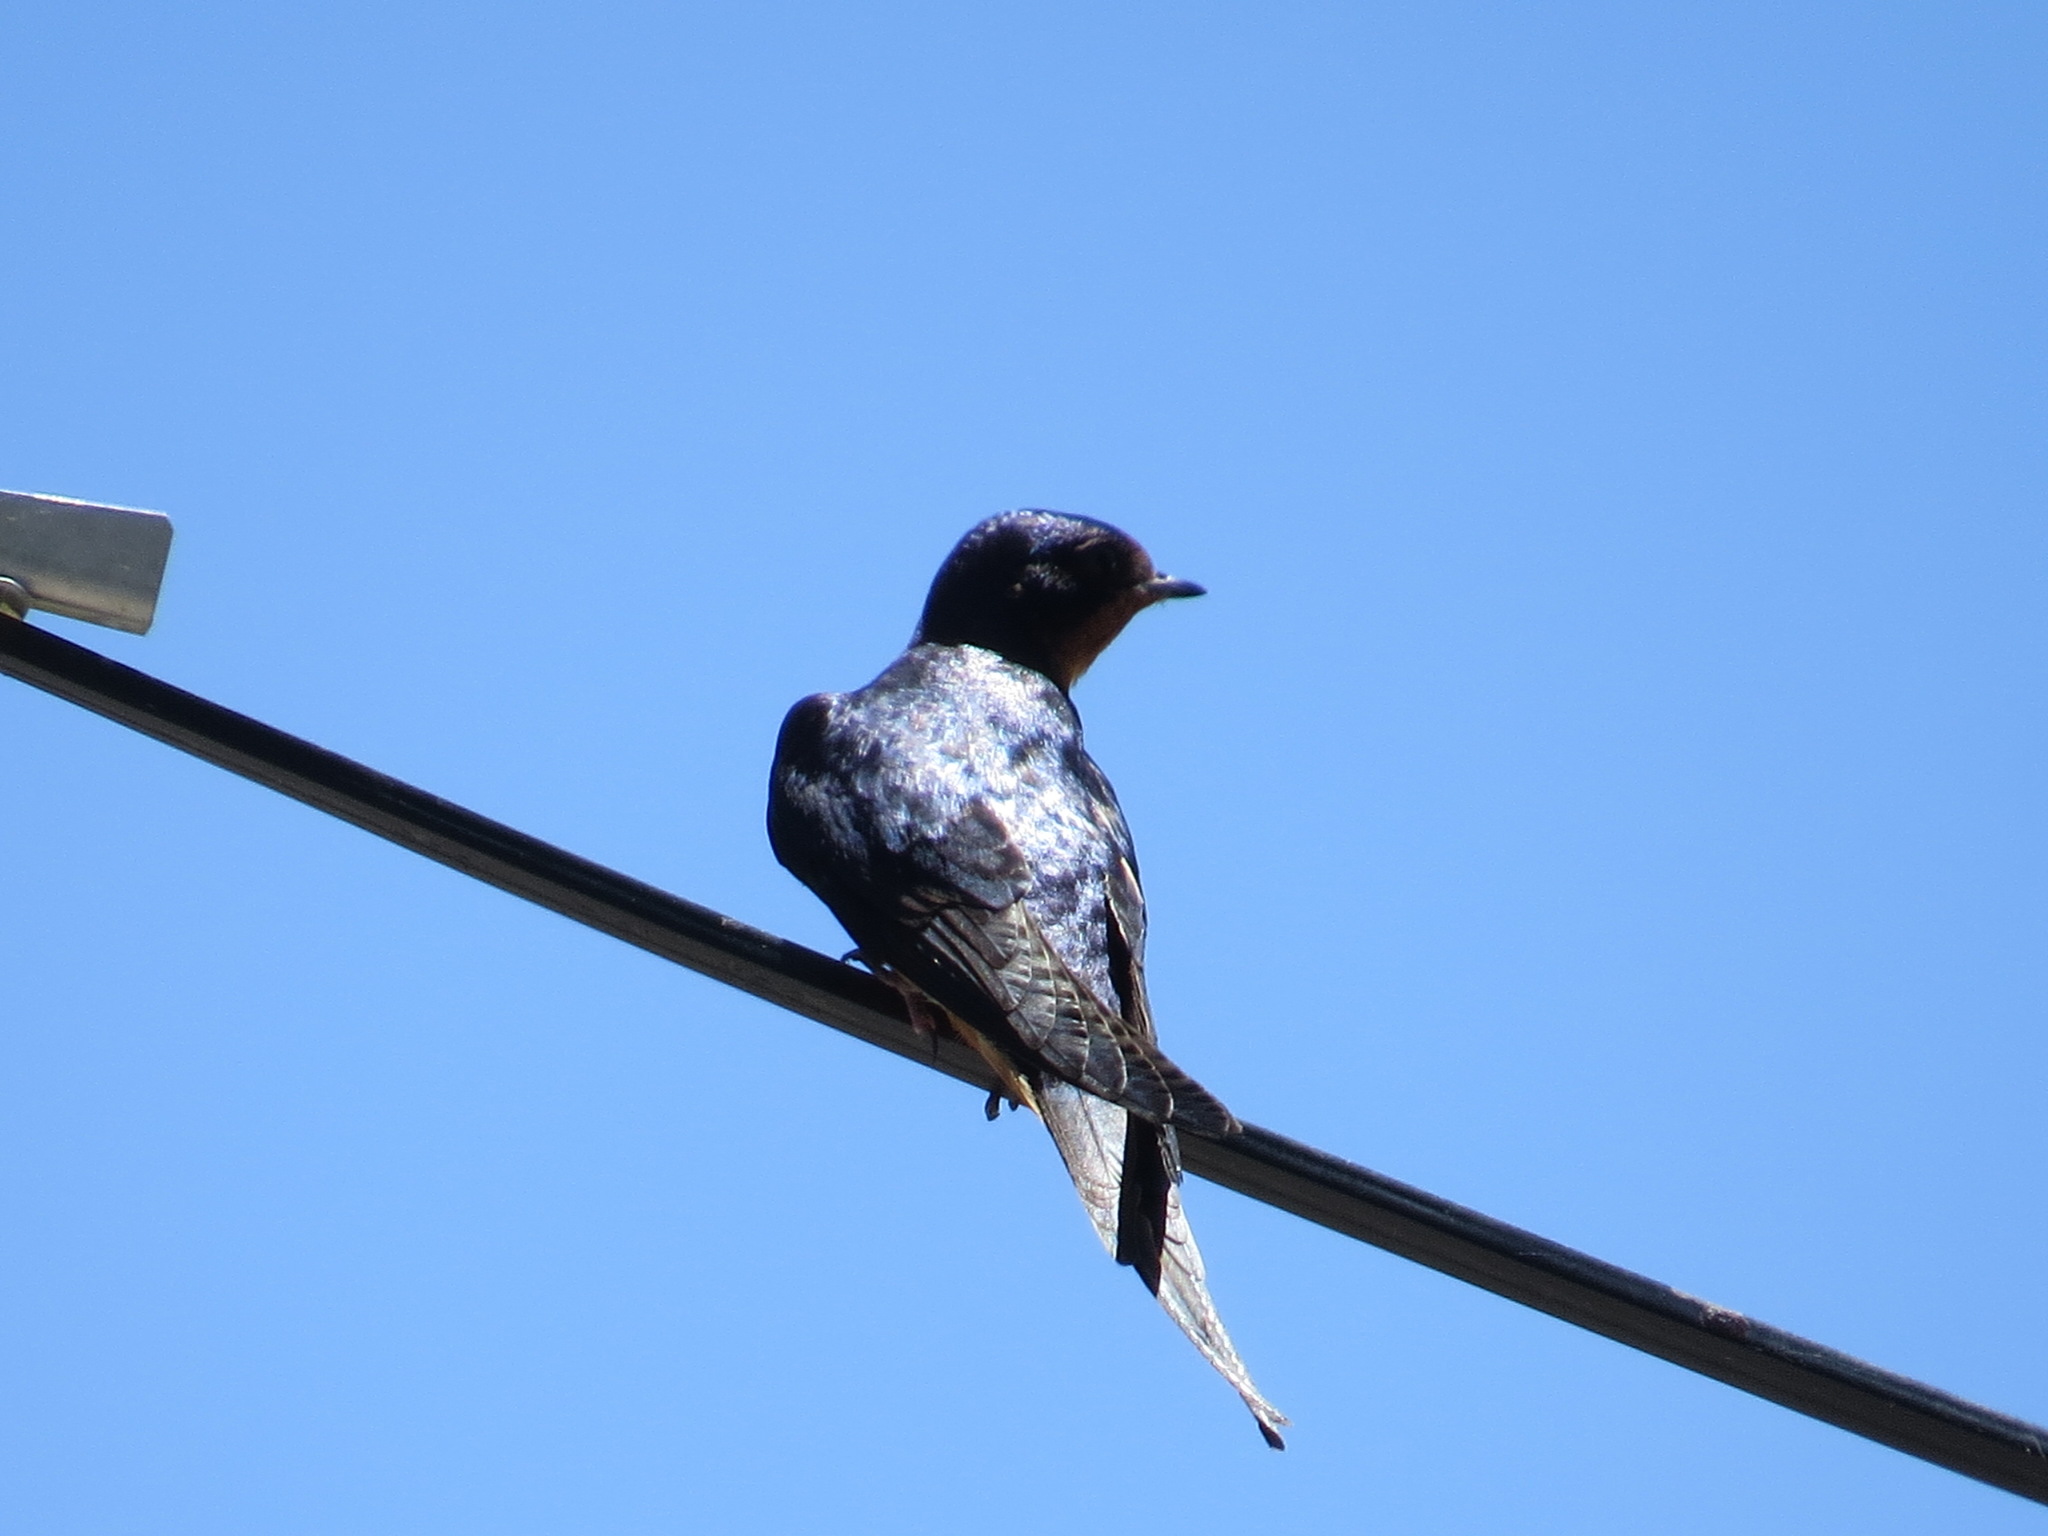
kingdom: Animalia
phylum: Chordata
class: Aves
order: Passeriformes
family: Hirundinidae
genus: Hirundo
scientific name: Hirundo rustica
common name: Barn swallow
